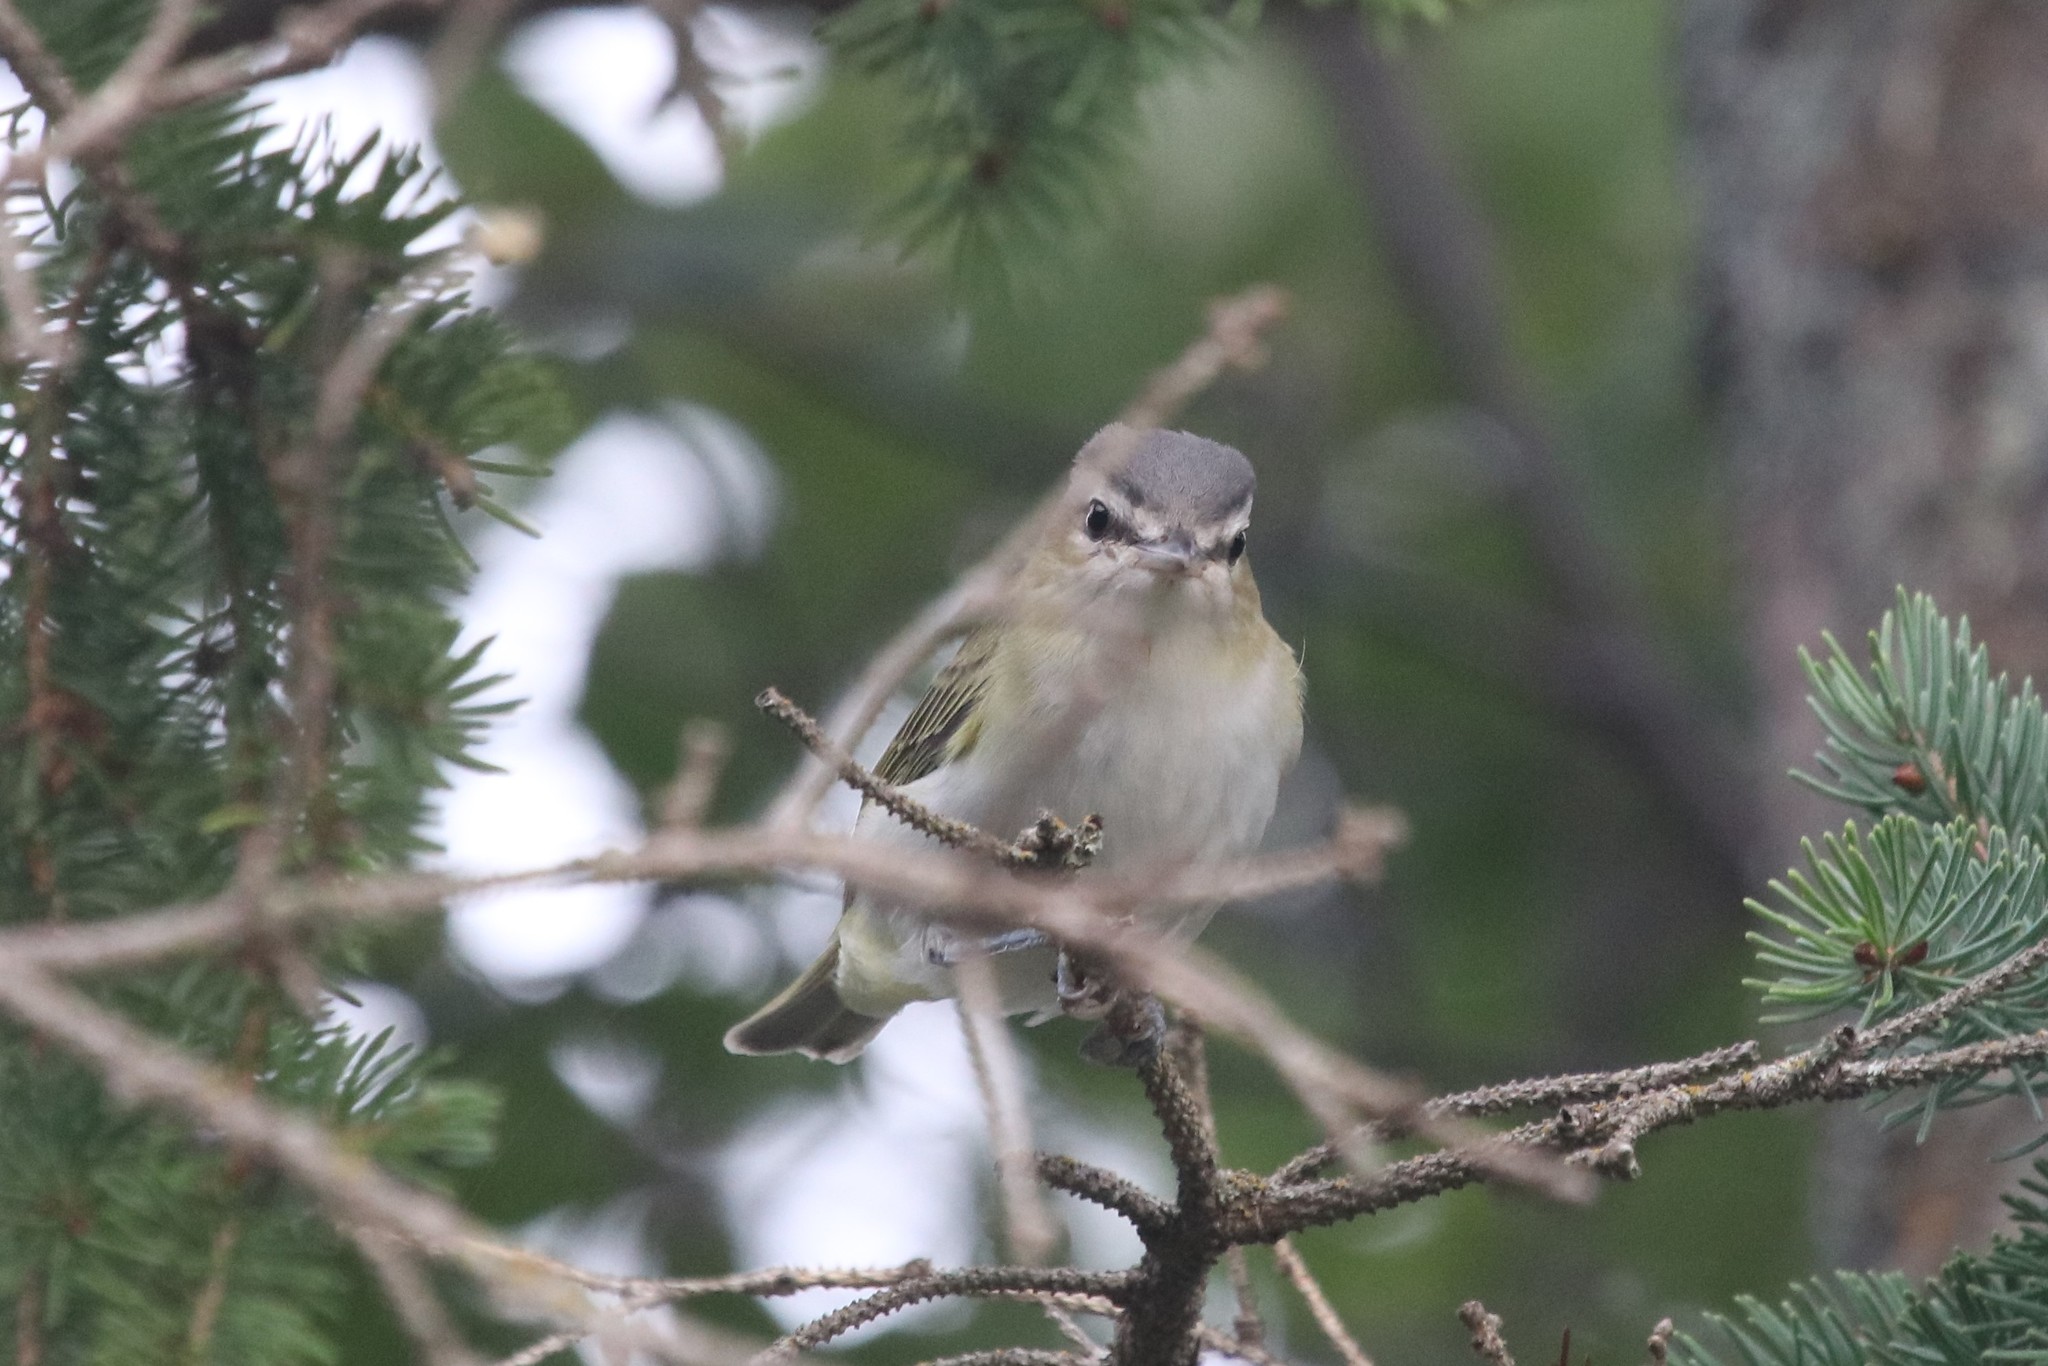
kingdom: Animalia
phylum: Chordata
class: Aves
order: Passeriformes
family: Vireonidae
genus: Vireo
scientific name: Vireo olivaceus
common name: Red-eyed vireo
